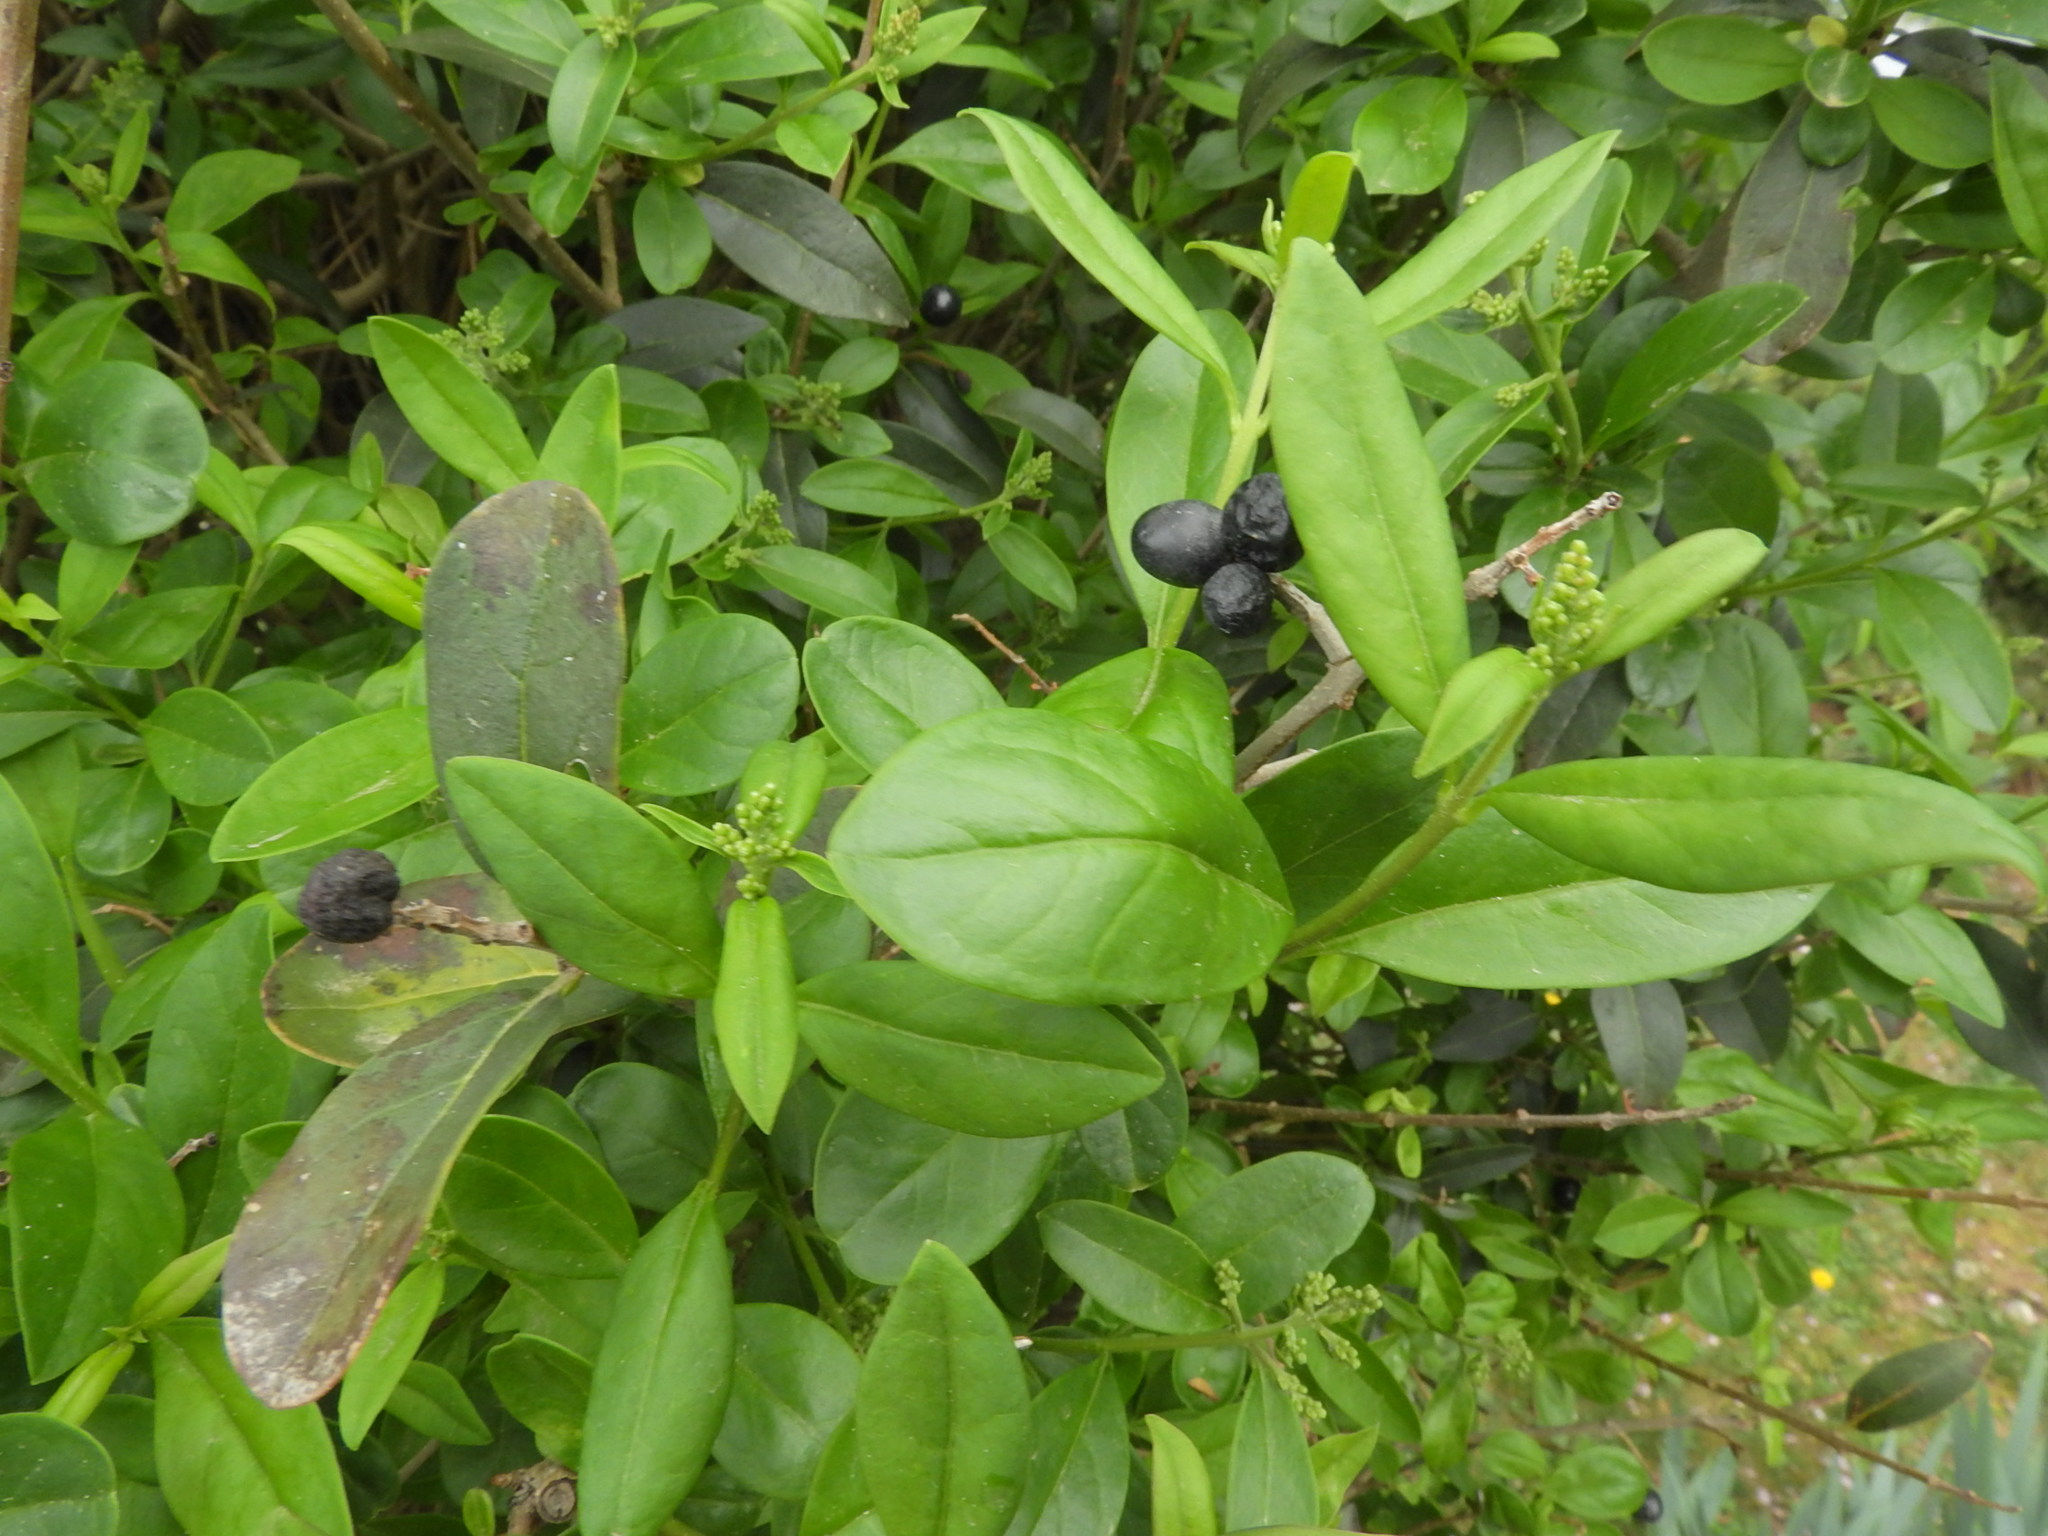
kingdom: Plantae
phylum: Tracheophyta
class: Magnoliopsida
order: Lamiales
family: Oleaceae
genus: Ligustrum
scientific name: Ligustrum vulgare
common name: Wild privet
